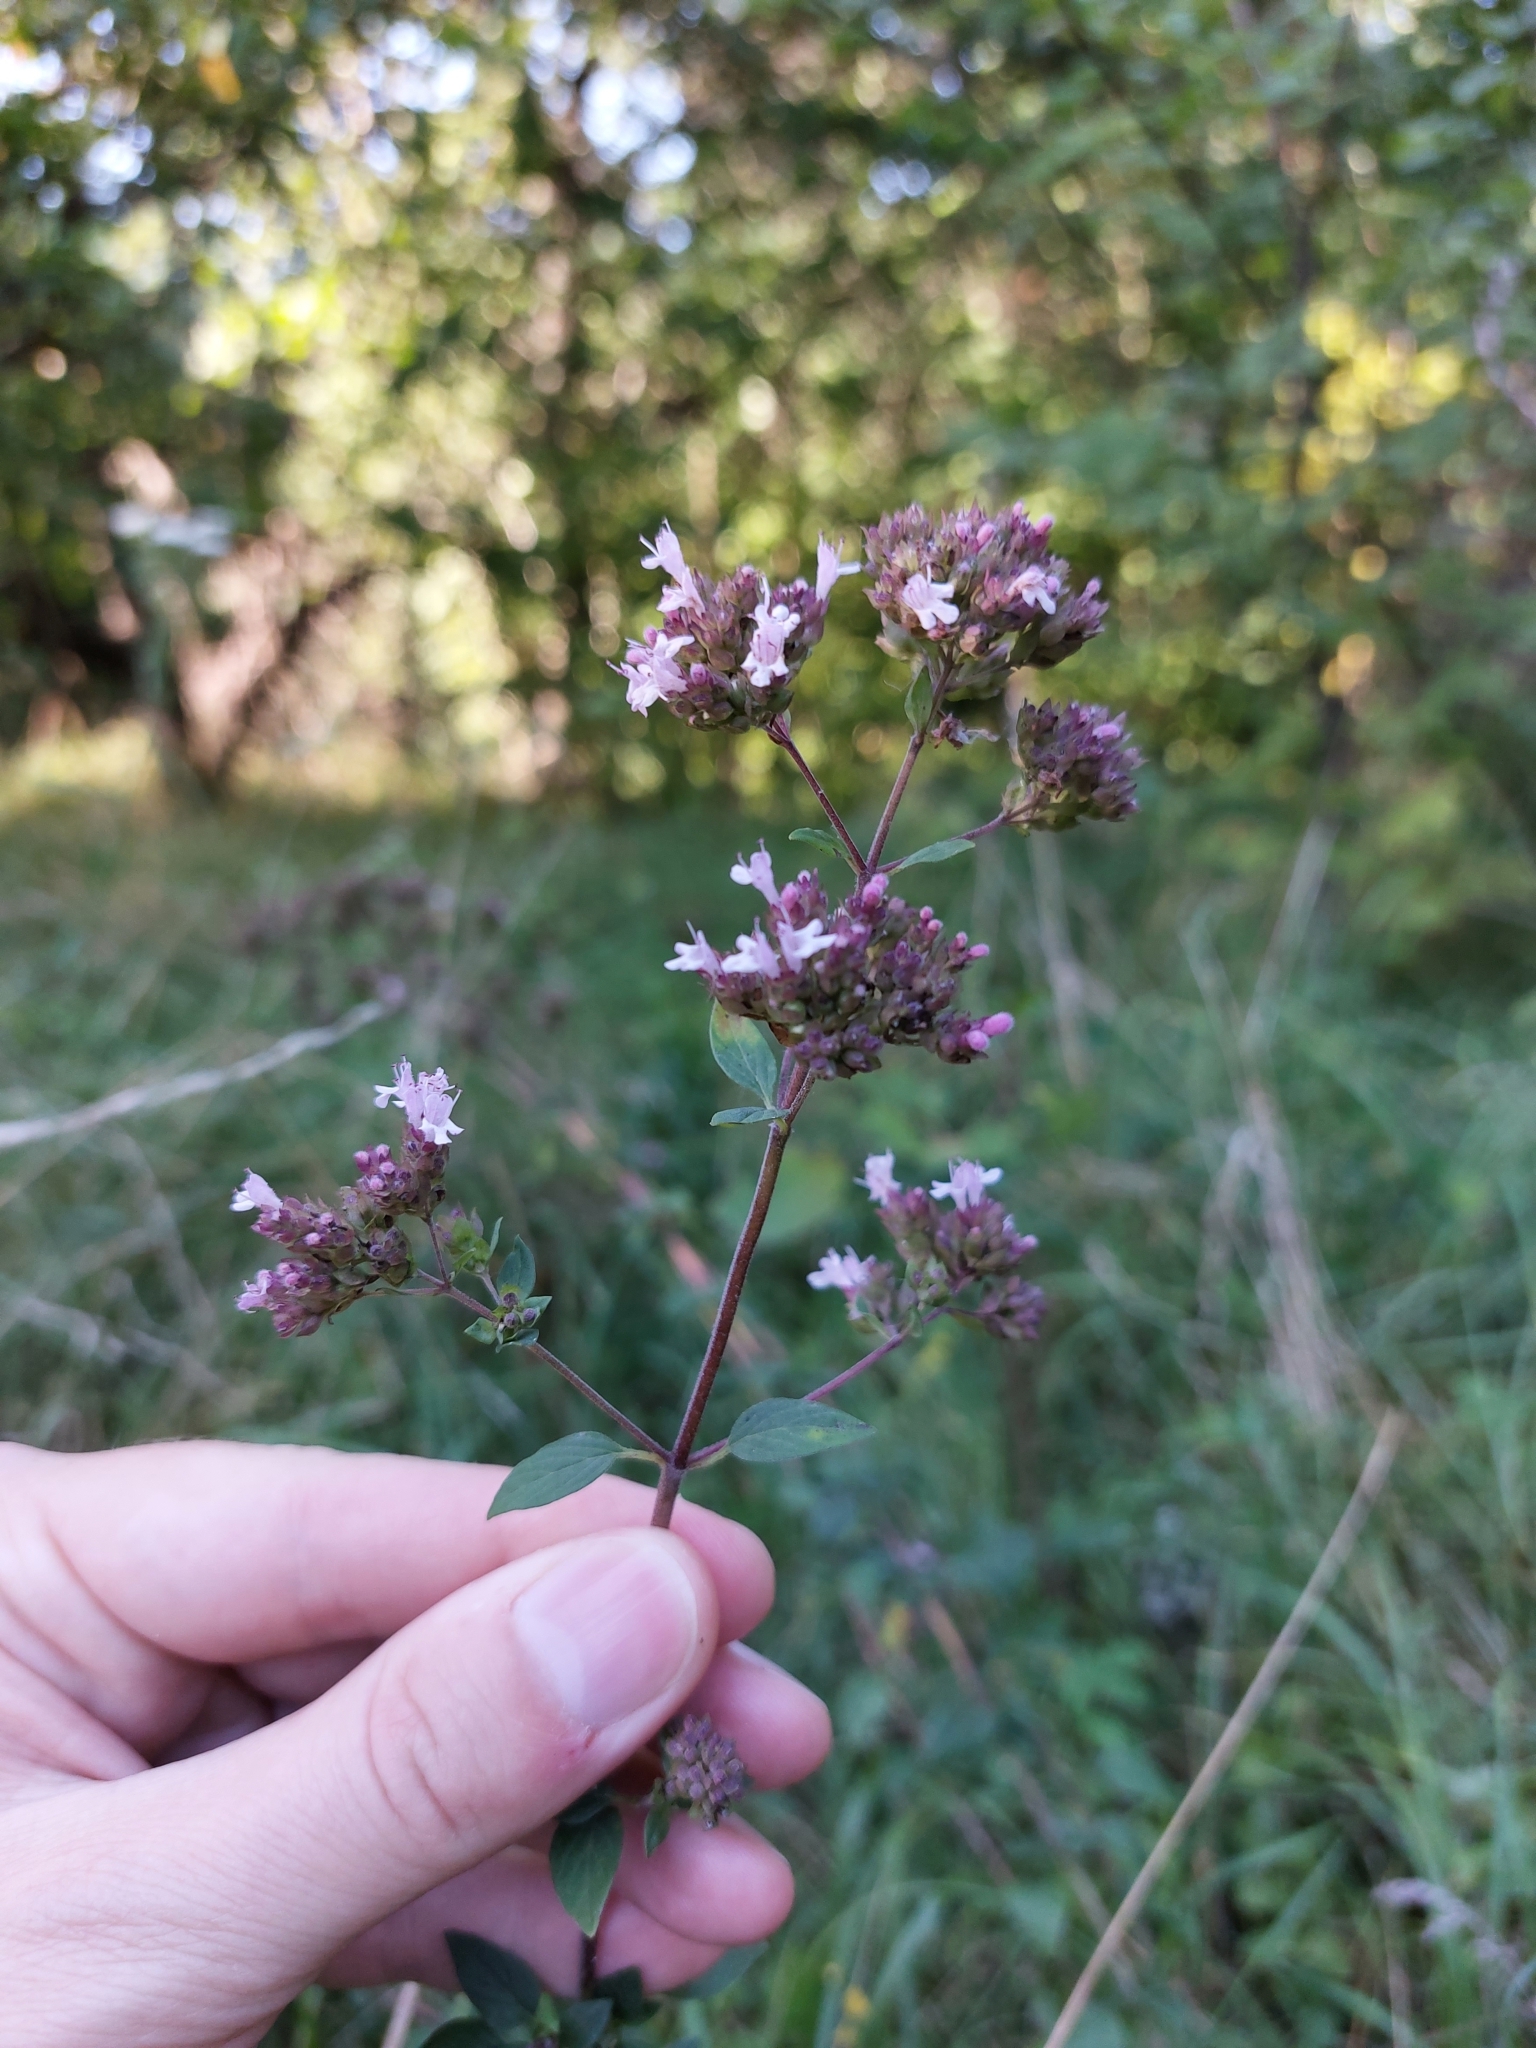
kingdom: Plantae
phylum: Tracheophyta
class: Magnoliopsida
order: Lamiales
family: Lamiaceae
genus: Origanum
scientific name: Origanum vulgare
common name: Wild marjoram
